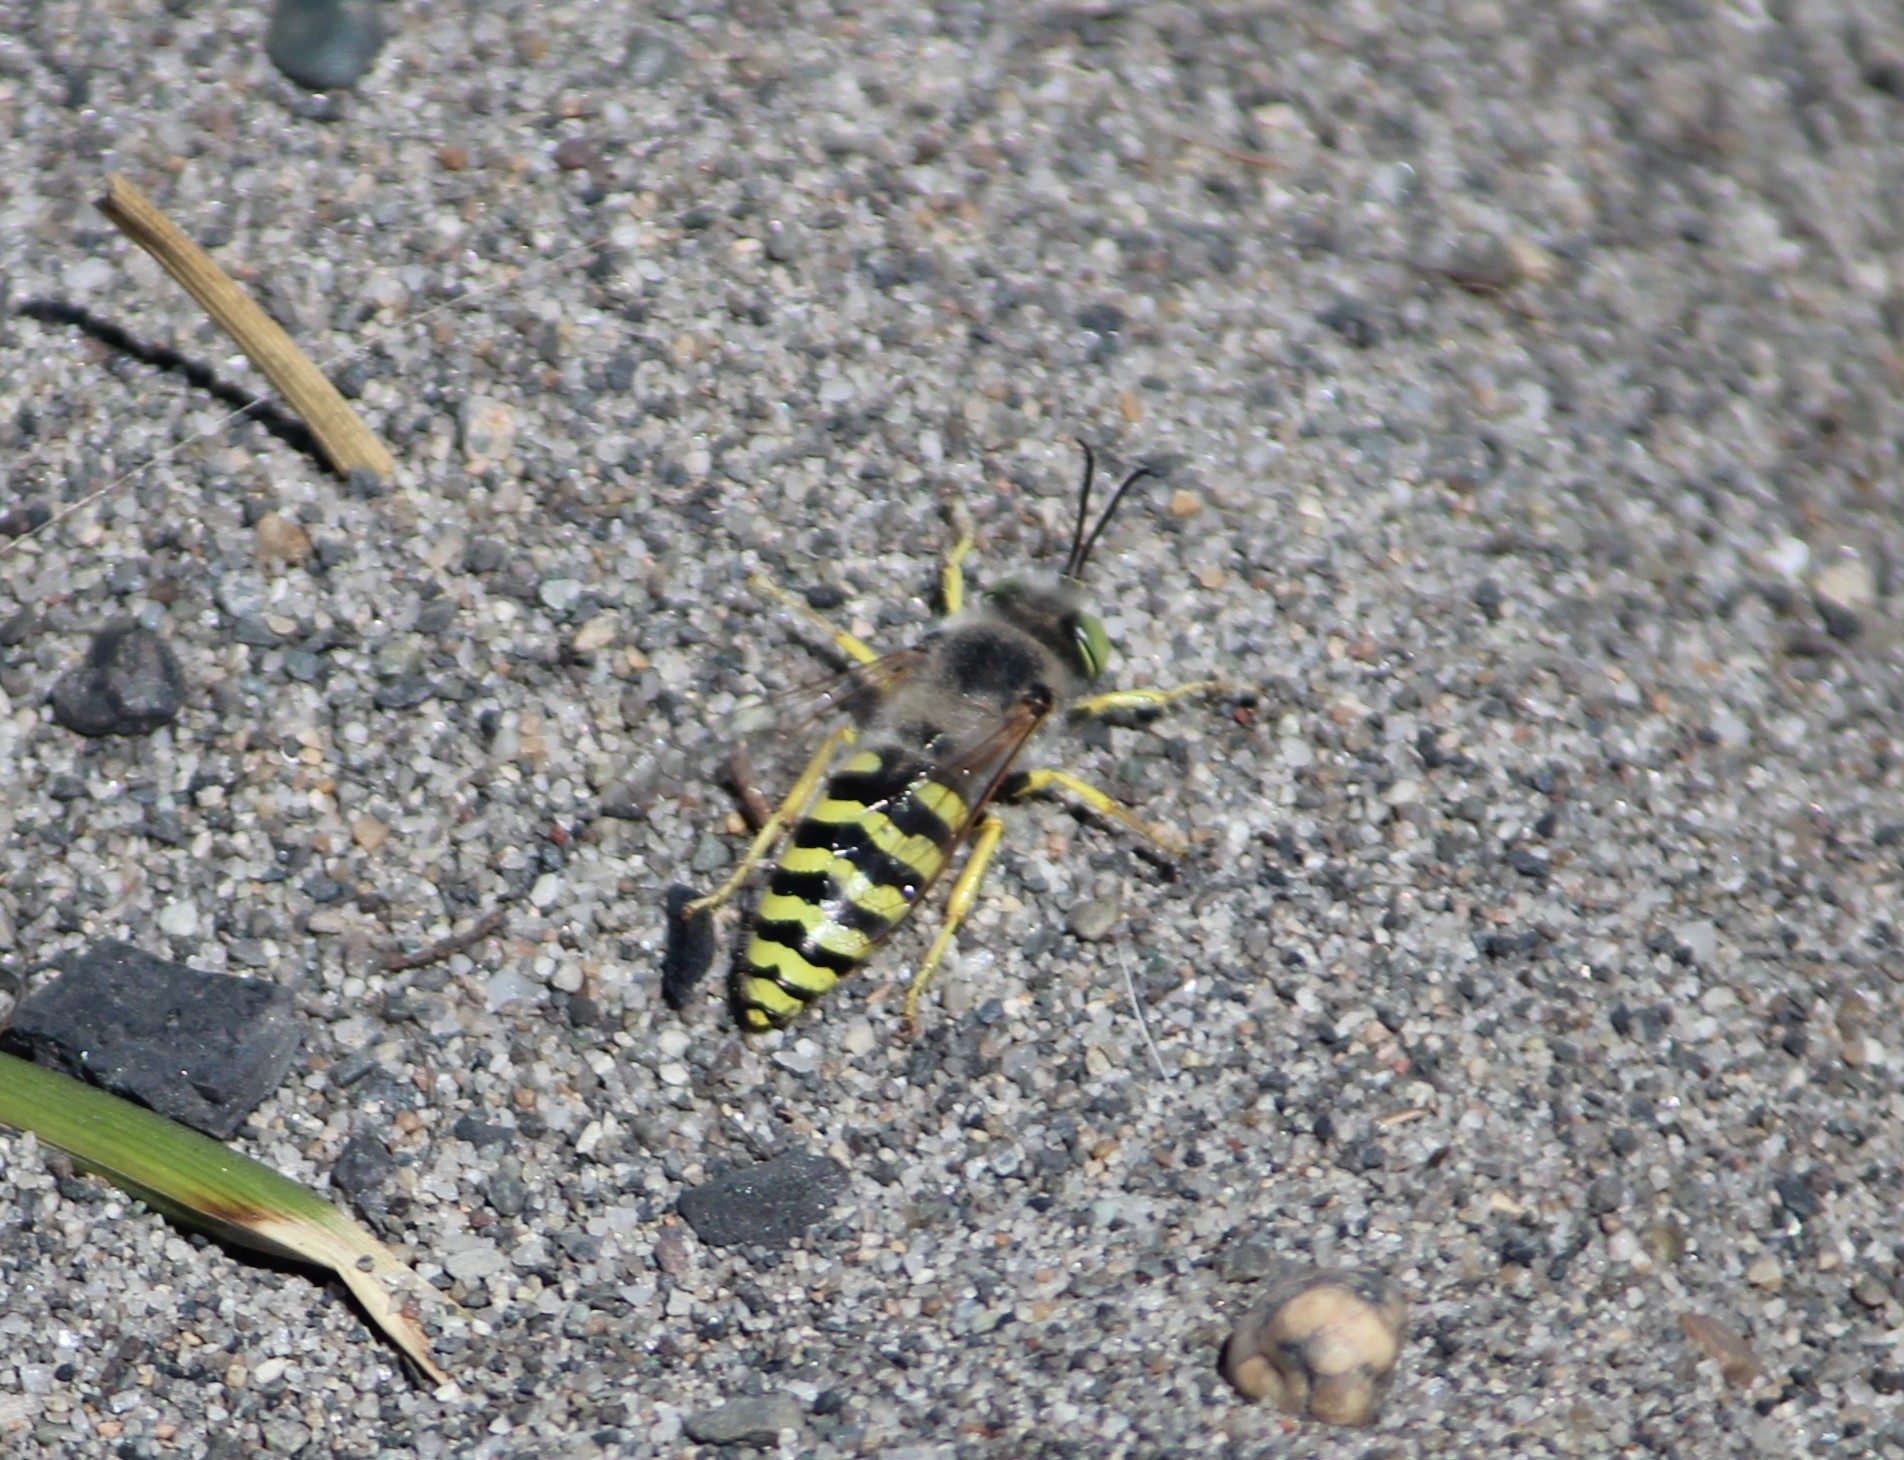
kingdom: Animalia
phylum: Arthropoda
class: Insecta
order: Hymenoptera
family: Crabronidae
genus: Bembix
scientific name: Bembix americana
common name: American sand wasp
